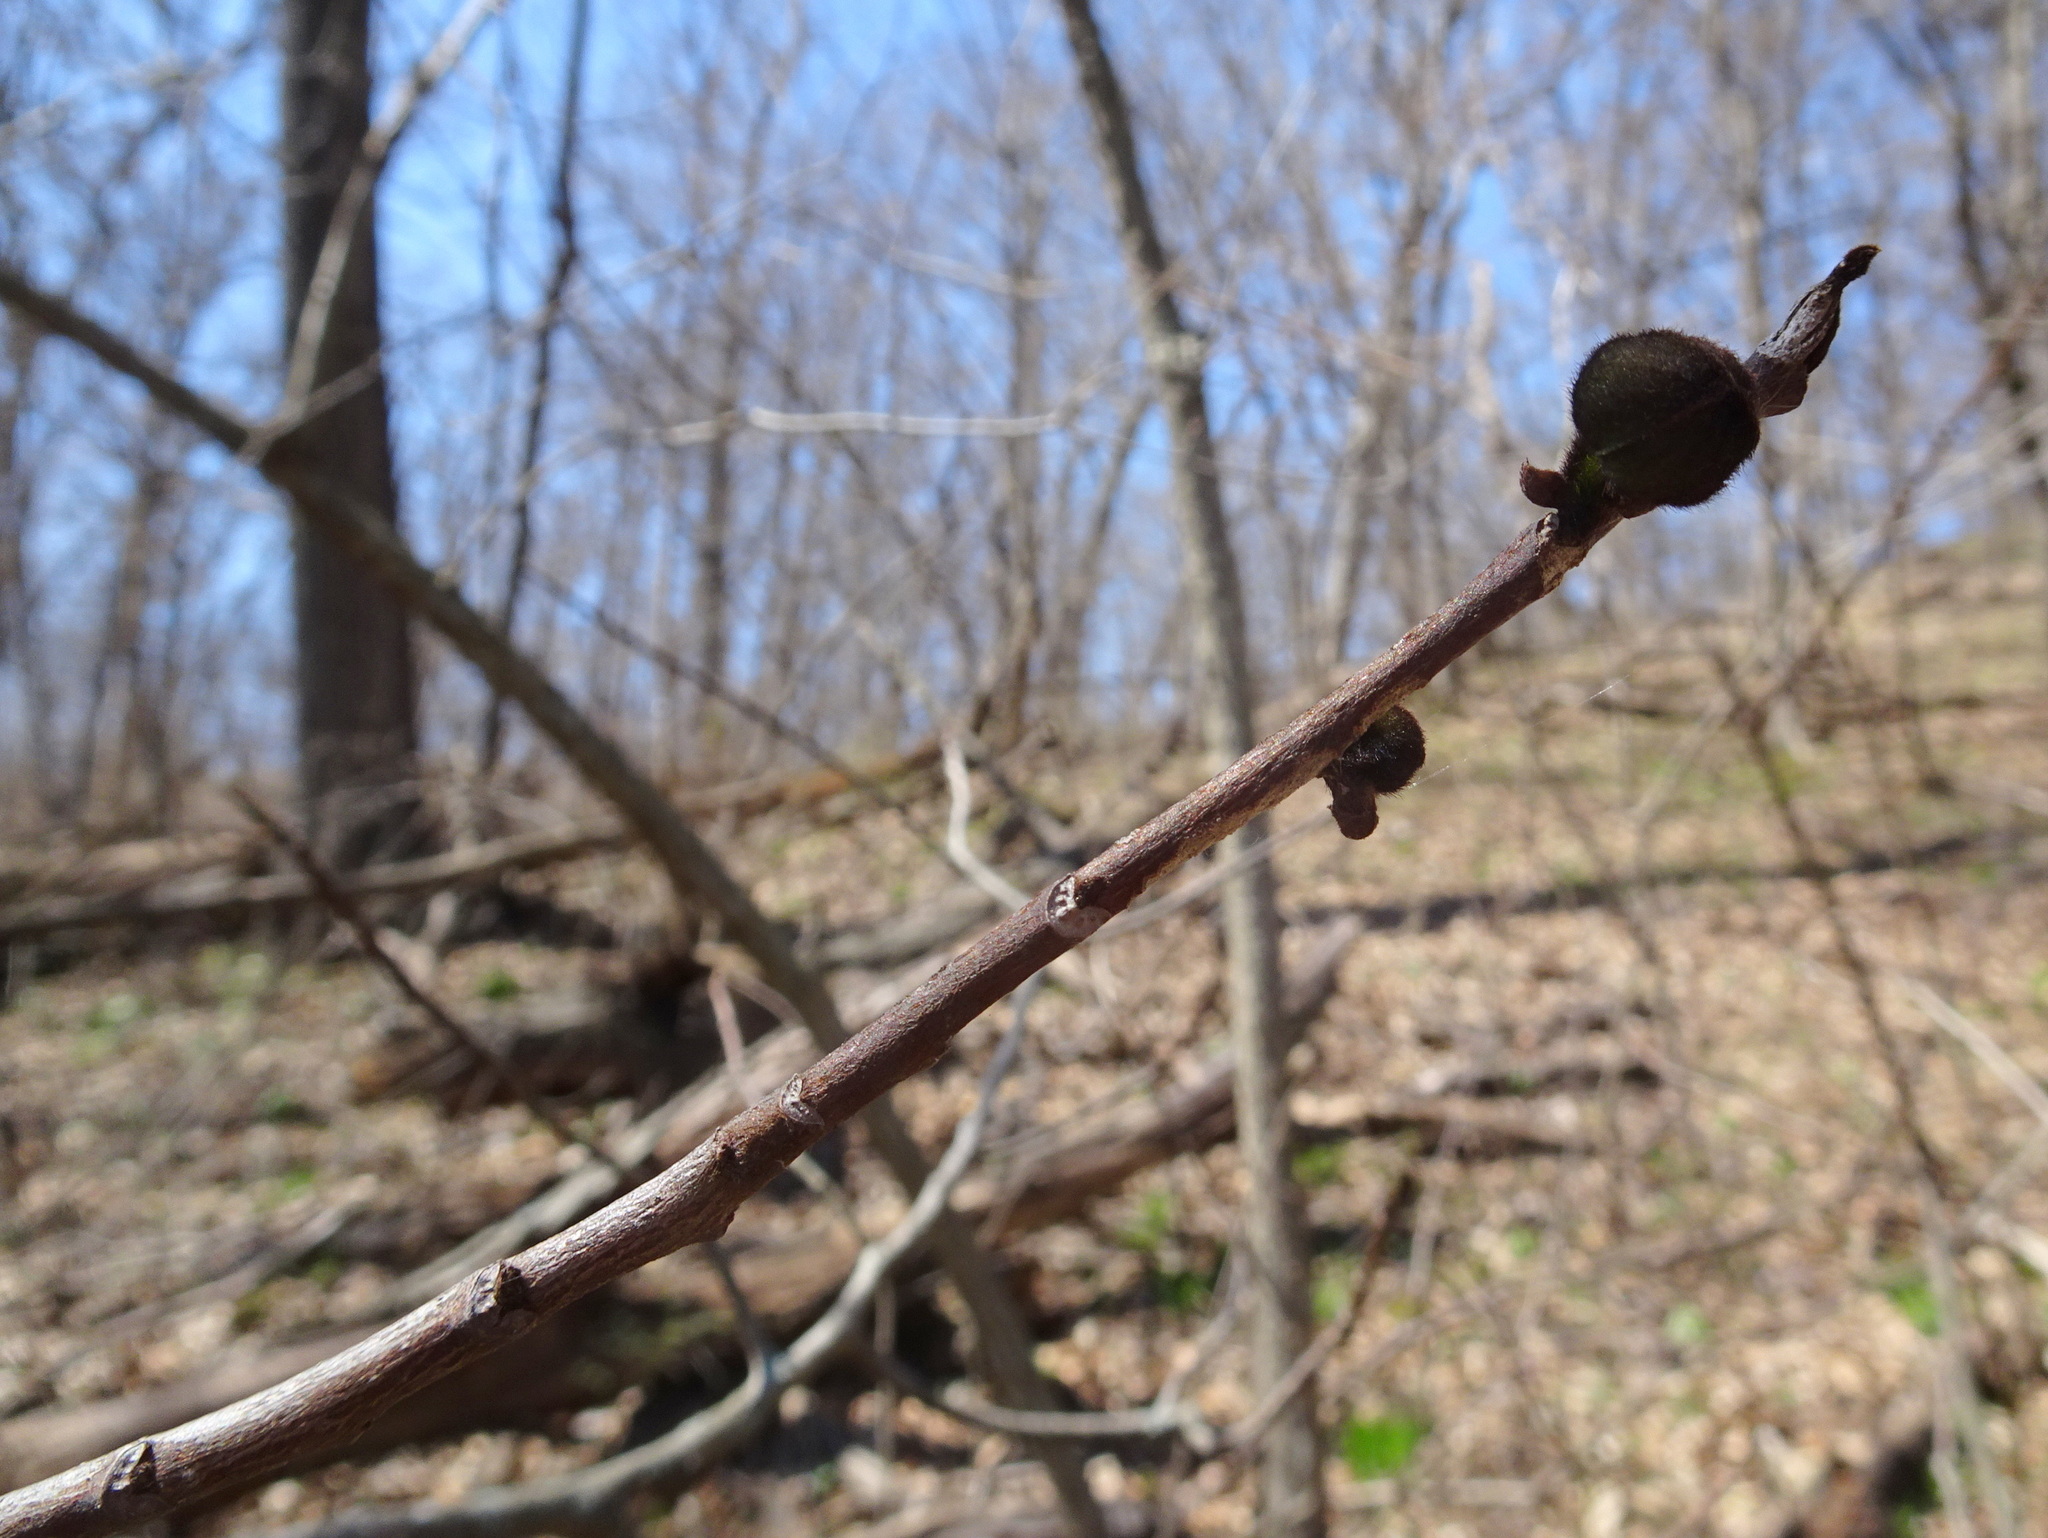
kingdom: Plantae
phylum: Tracheophyta
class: Magnoliopsida
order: Magnoliales
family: Annonaceae
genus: Asimina
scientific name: Asimina triloba
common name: Dog-banana
